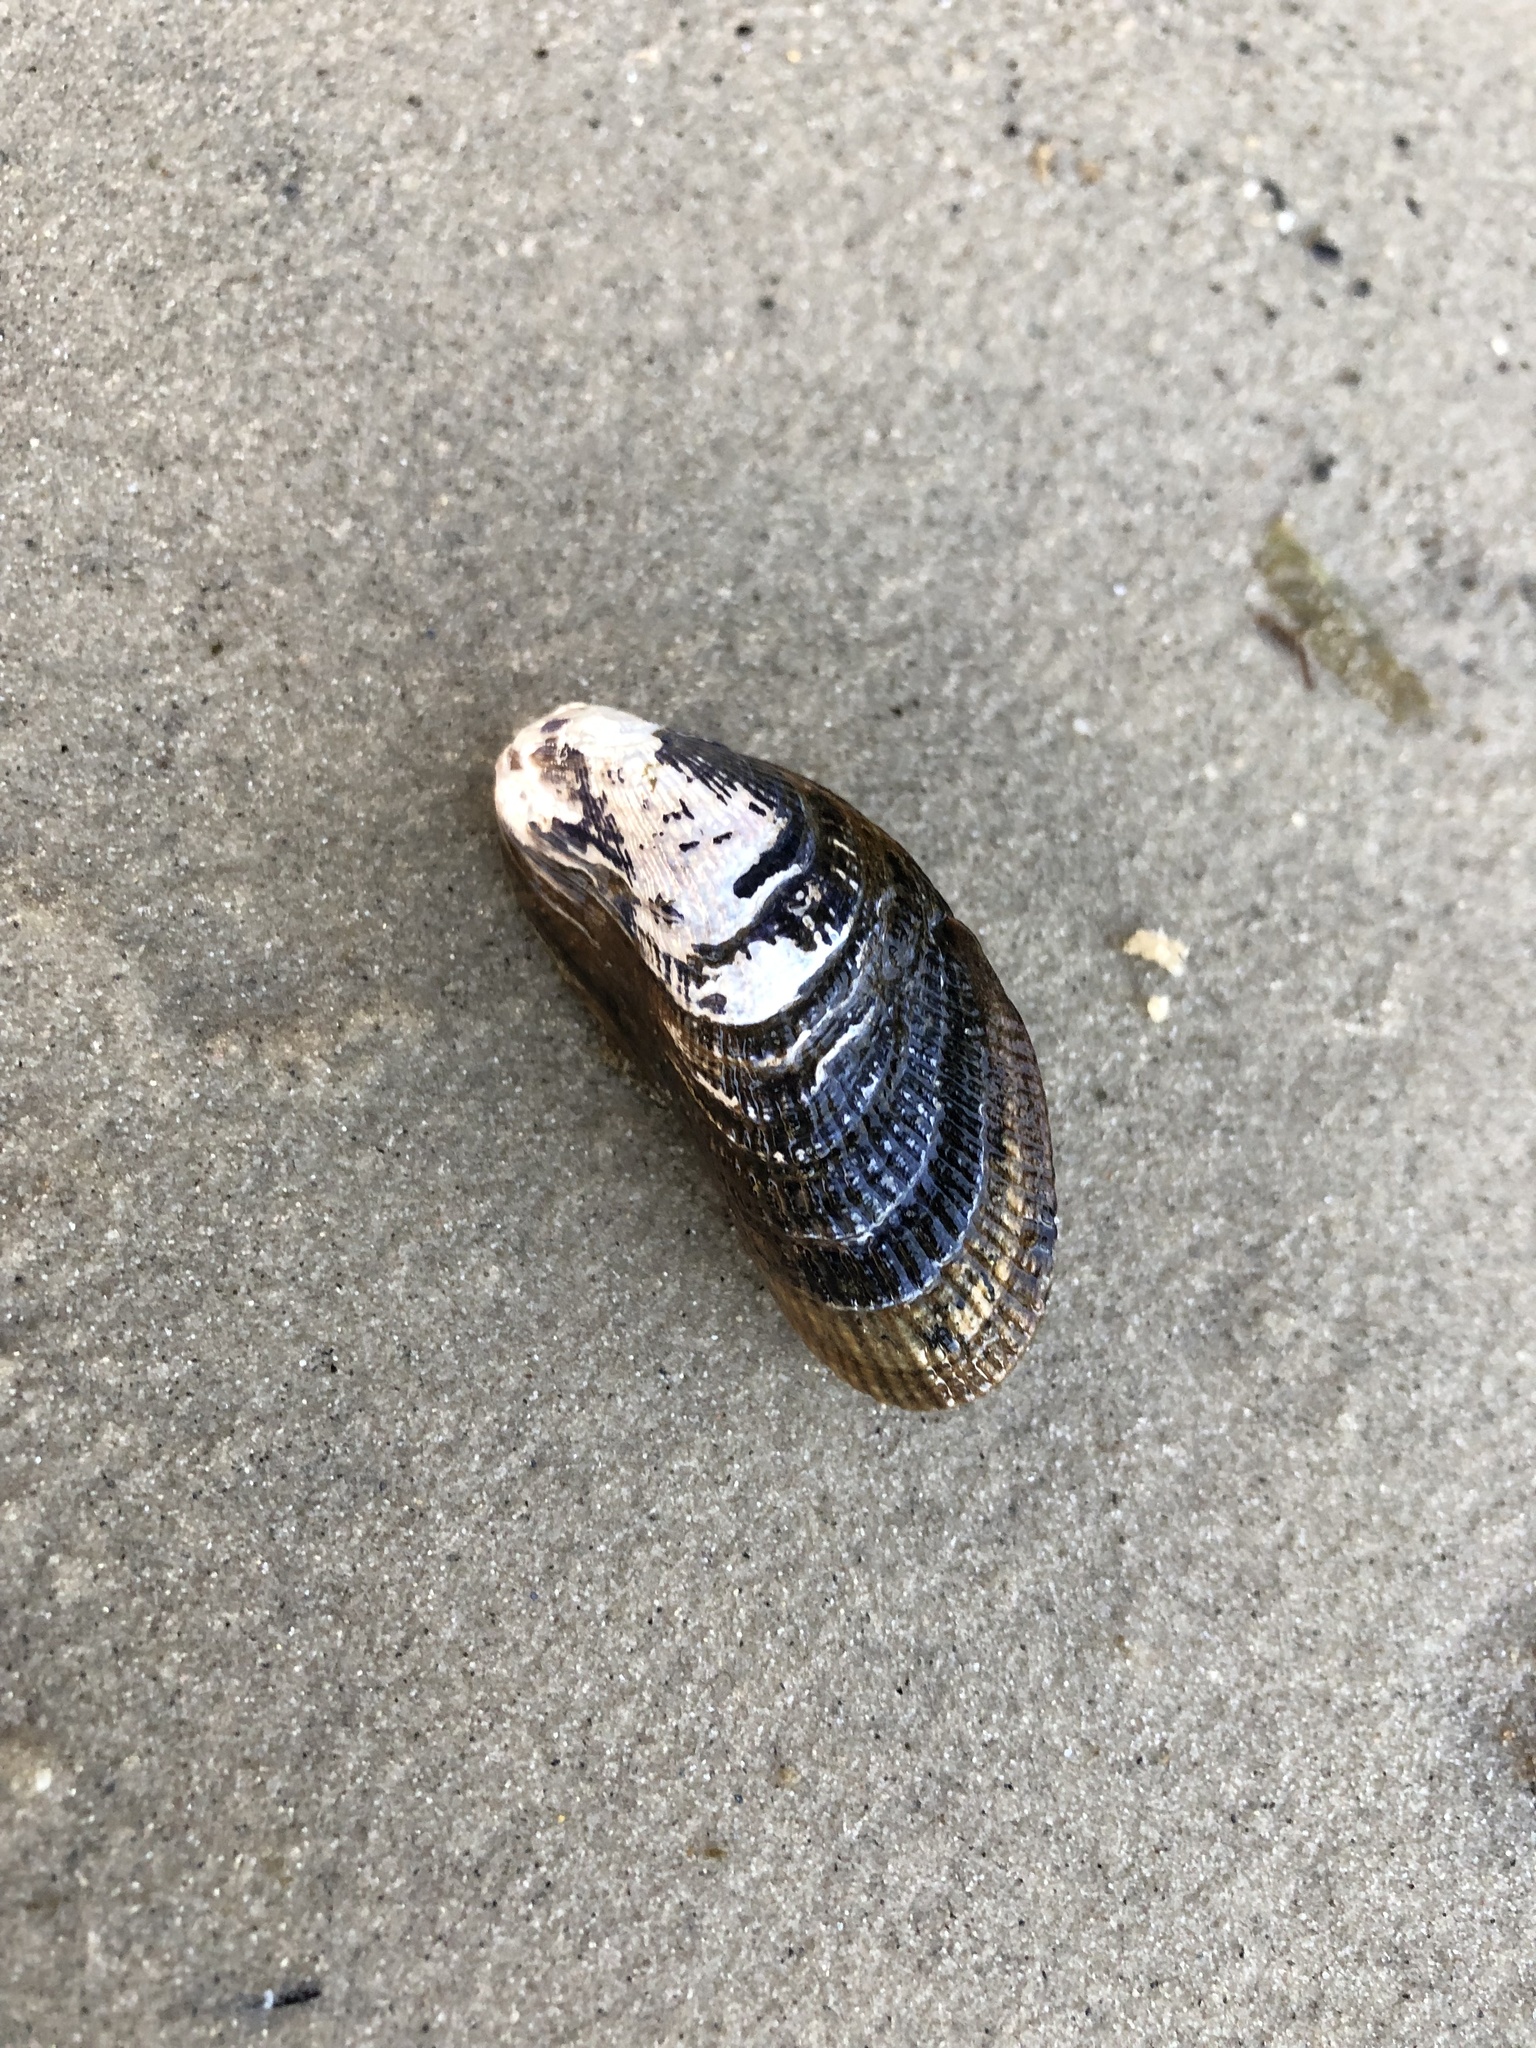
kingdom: Animalia
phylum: Mollusca
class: Bivalvia
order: Mytilida
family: Mytilidae
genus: Geukensia
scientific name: Geukensia demissa
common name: Ribbed mussel
